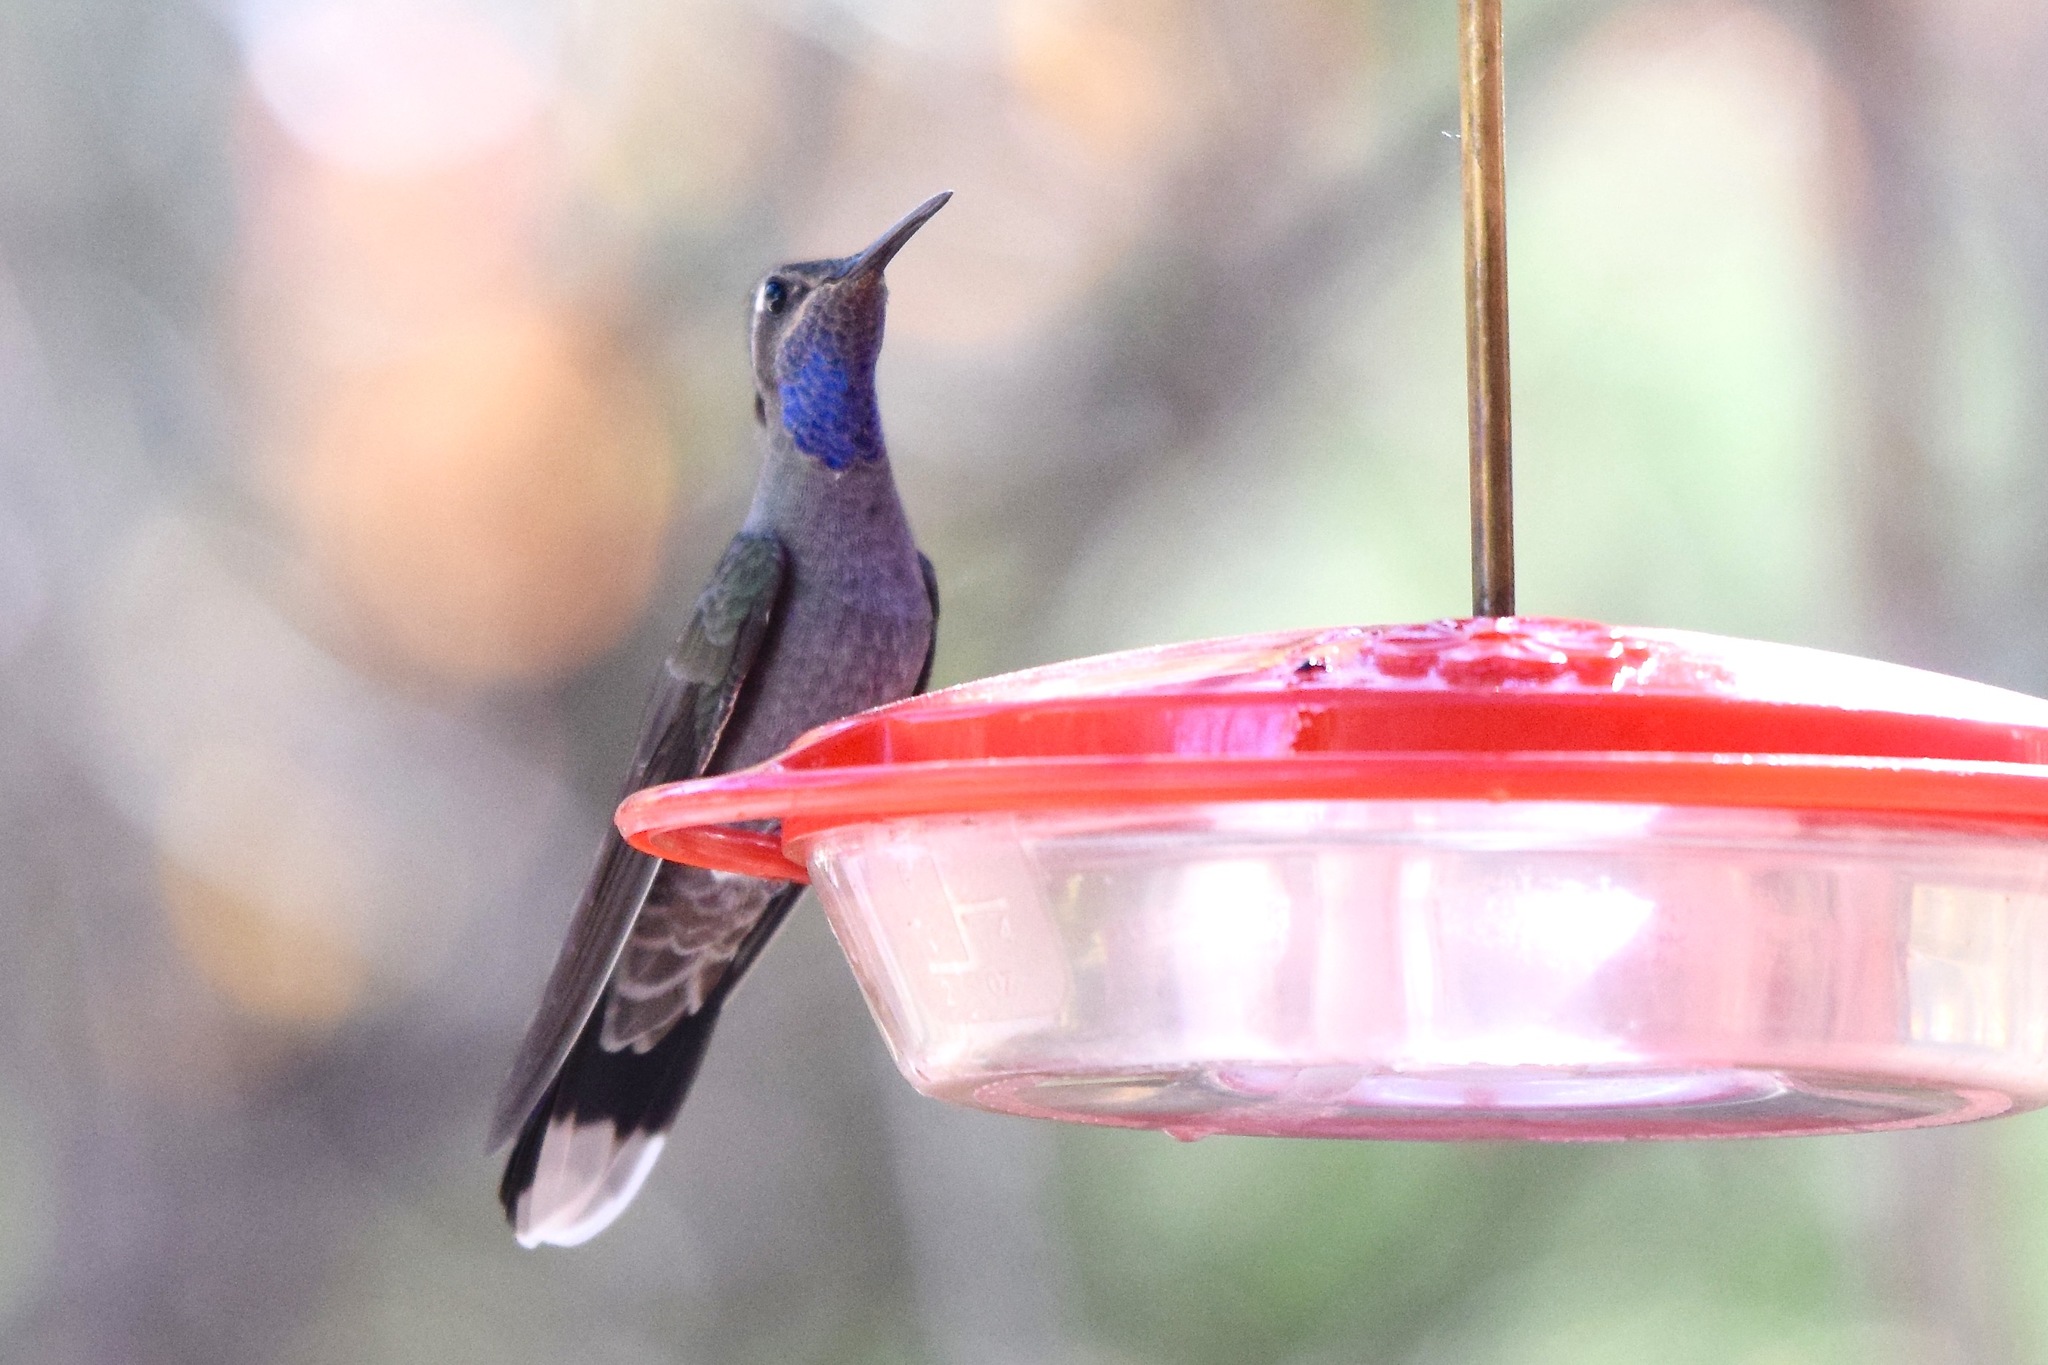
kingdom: Animalia
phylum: Chordata
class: Aves
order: Apodiformes
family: Trochilidae
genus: Lampornis
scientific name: Lampornis clemenciae
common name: Blue-throated mountaingem
